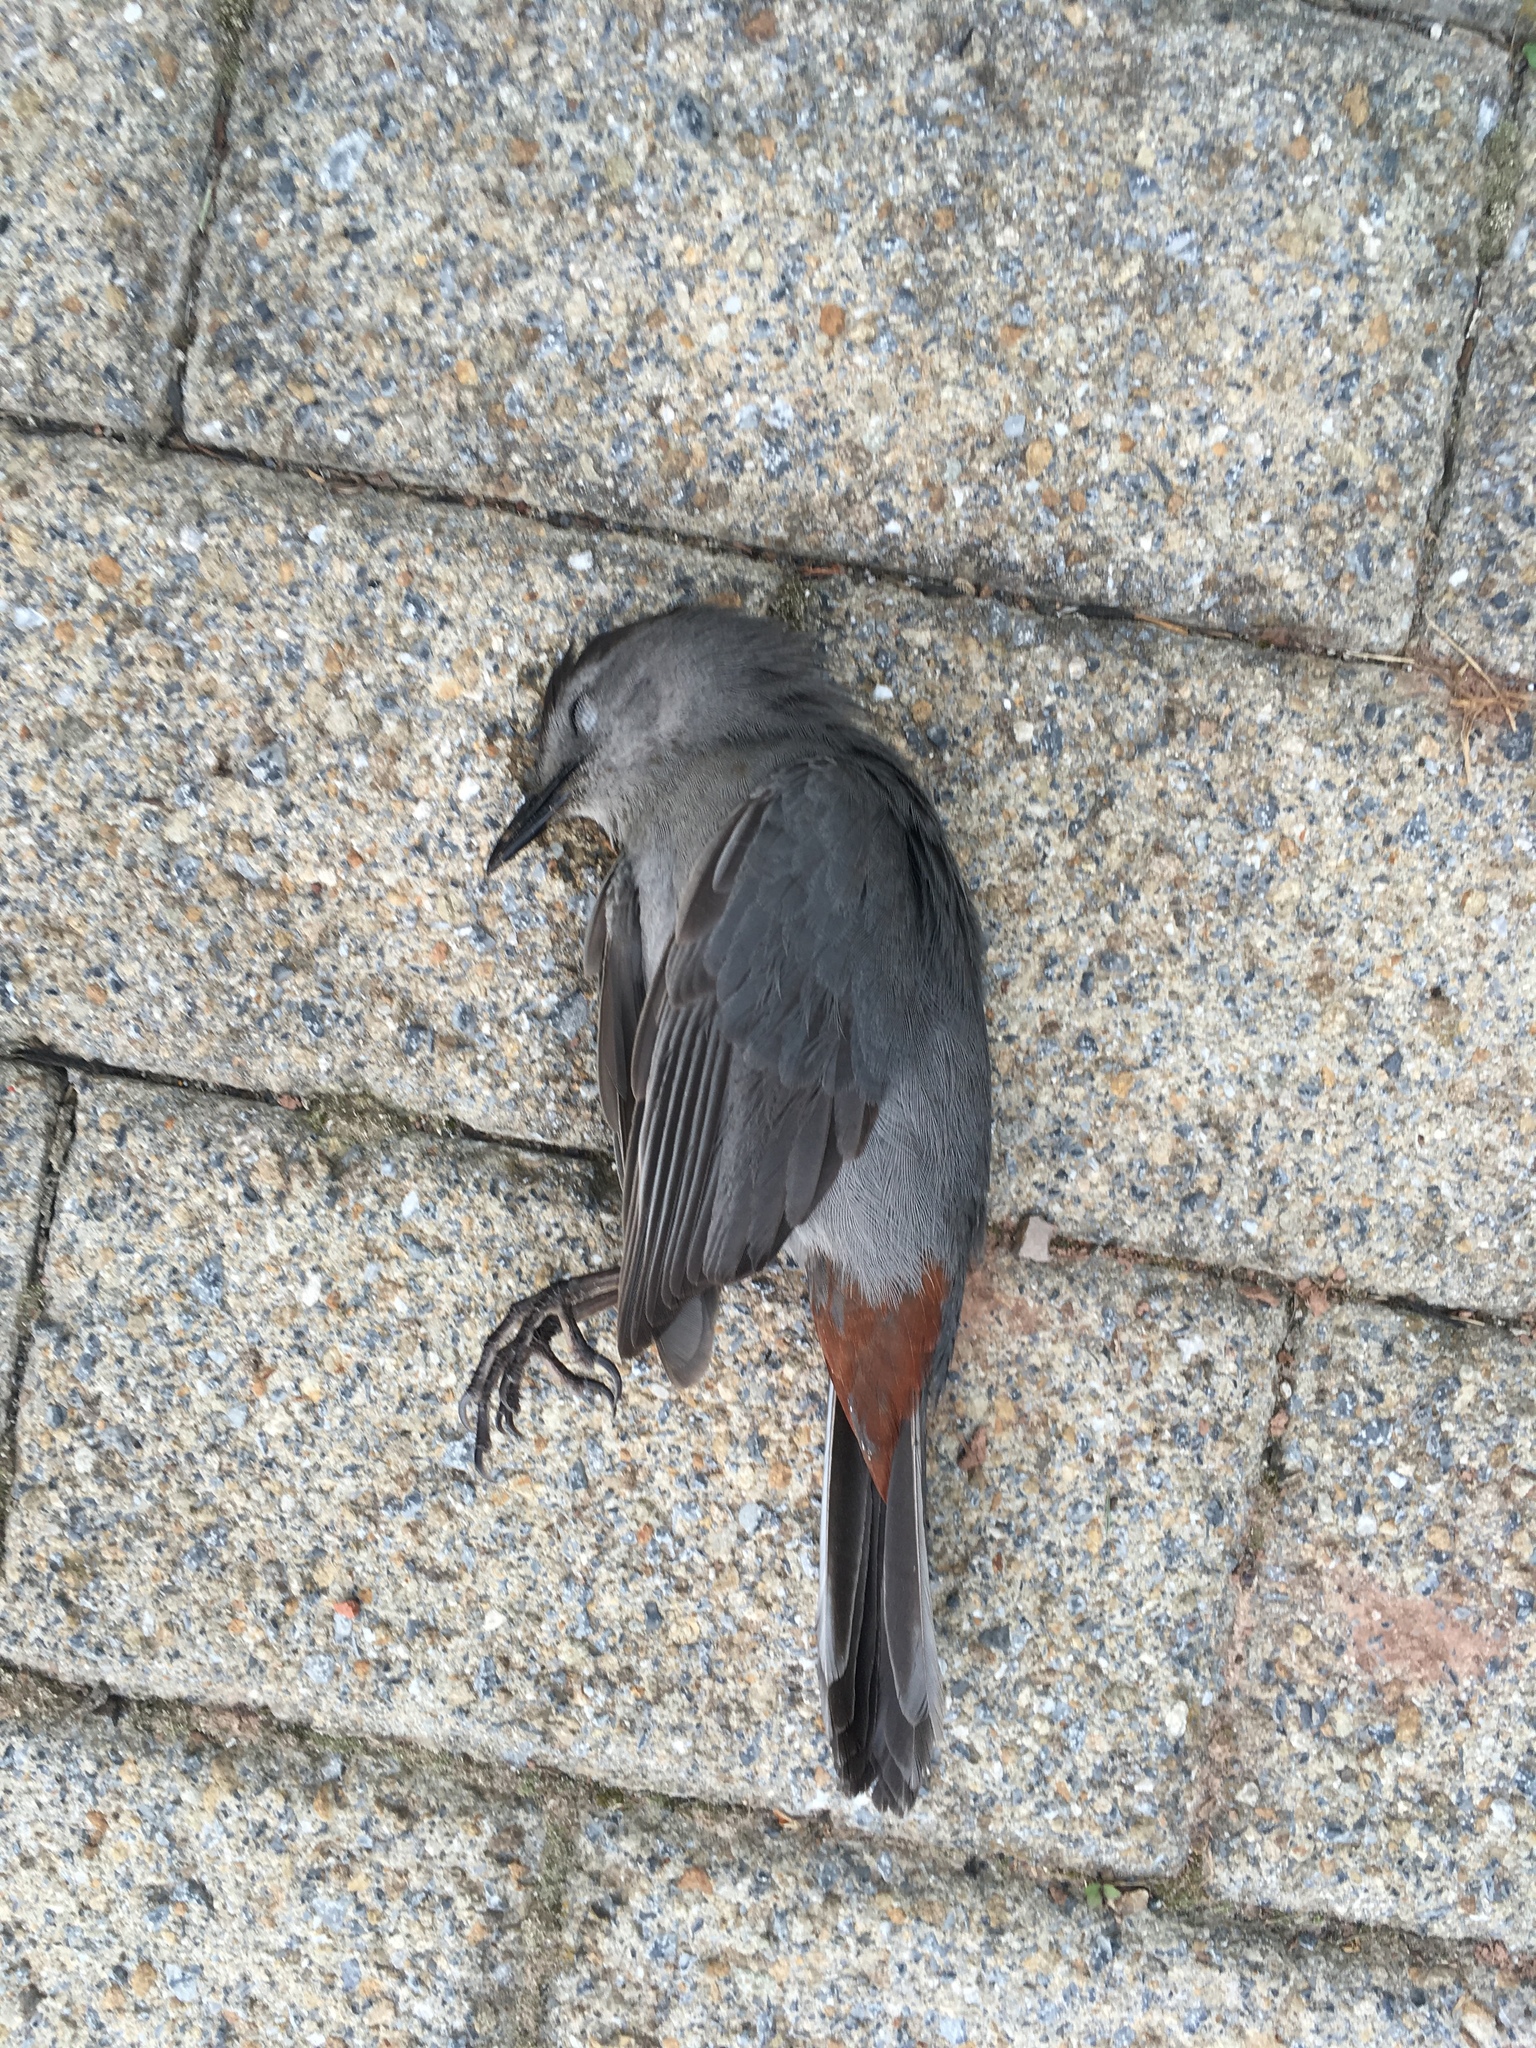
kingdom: Animalia
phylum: Chordata
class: Aves
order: Passeriformes
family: Mimidae
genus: Dumetella
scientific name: Dumetella carolinensis
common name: Gray catbird
